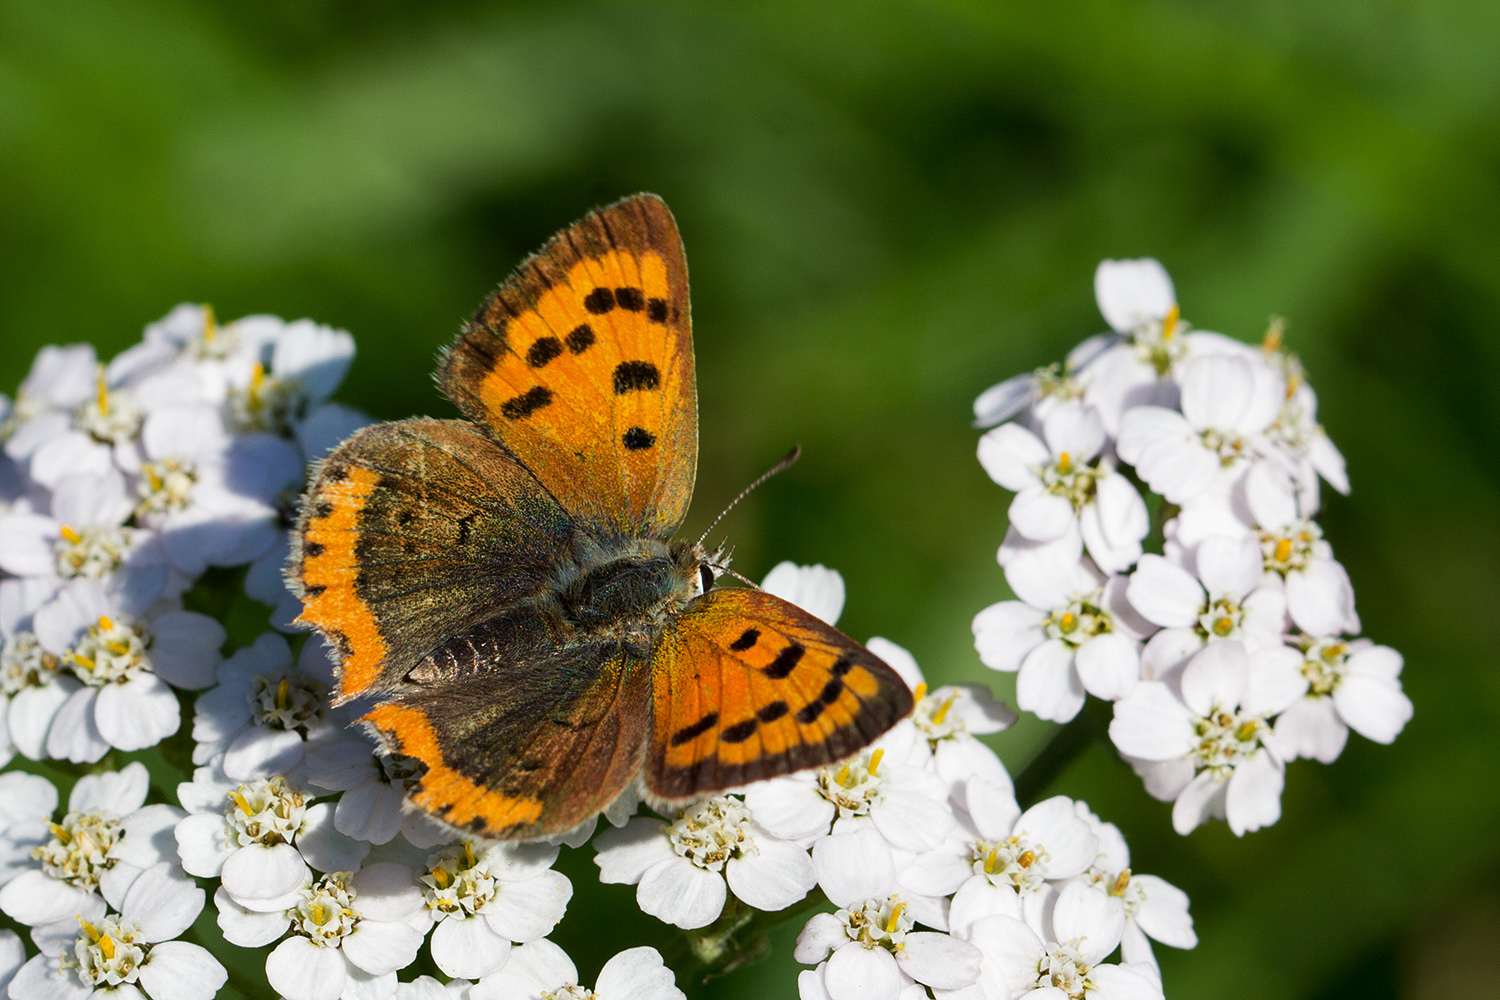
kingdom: Animalia
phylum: Arthropoda
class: Insecta
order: Lepidoptera
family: Lycaenidae
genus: Lycaena
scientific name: Lycaena phlaeas
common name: Small copper
